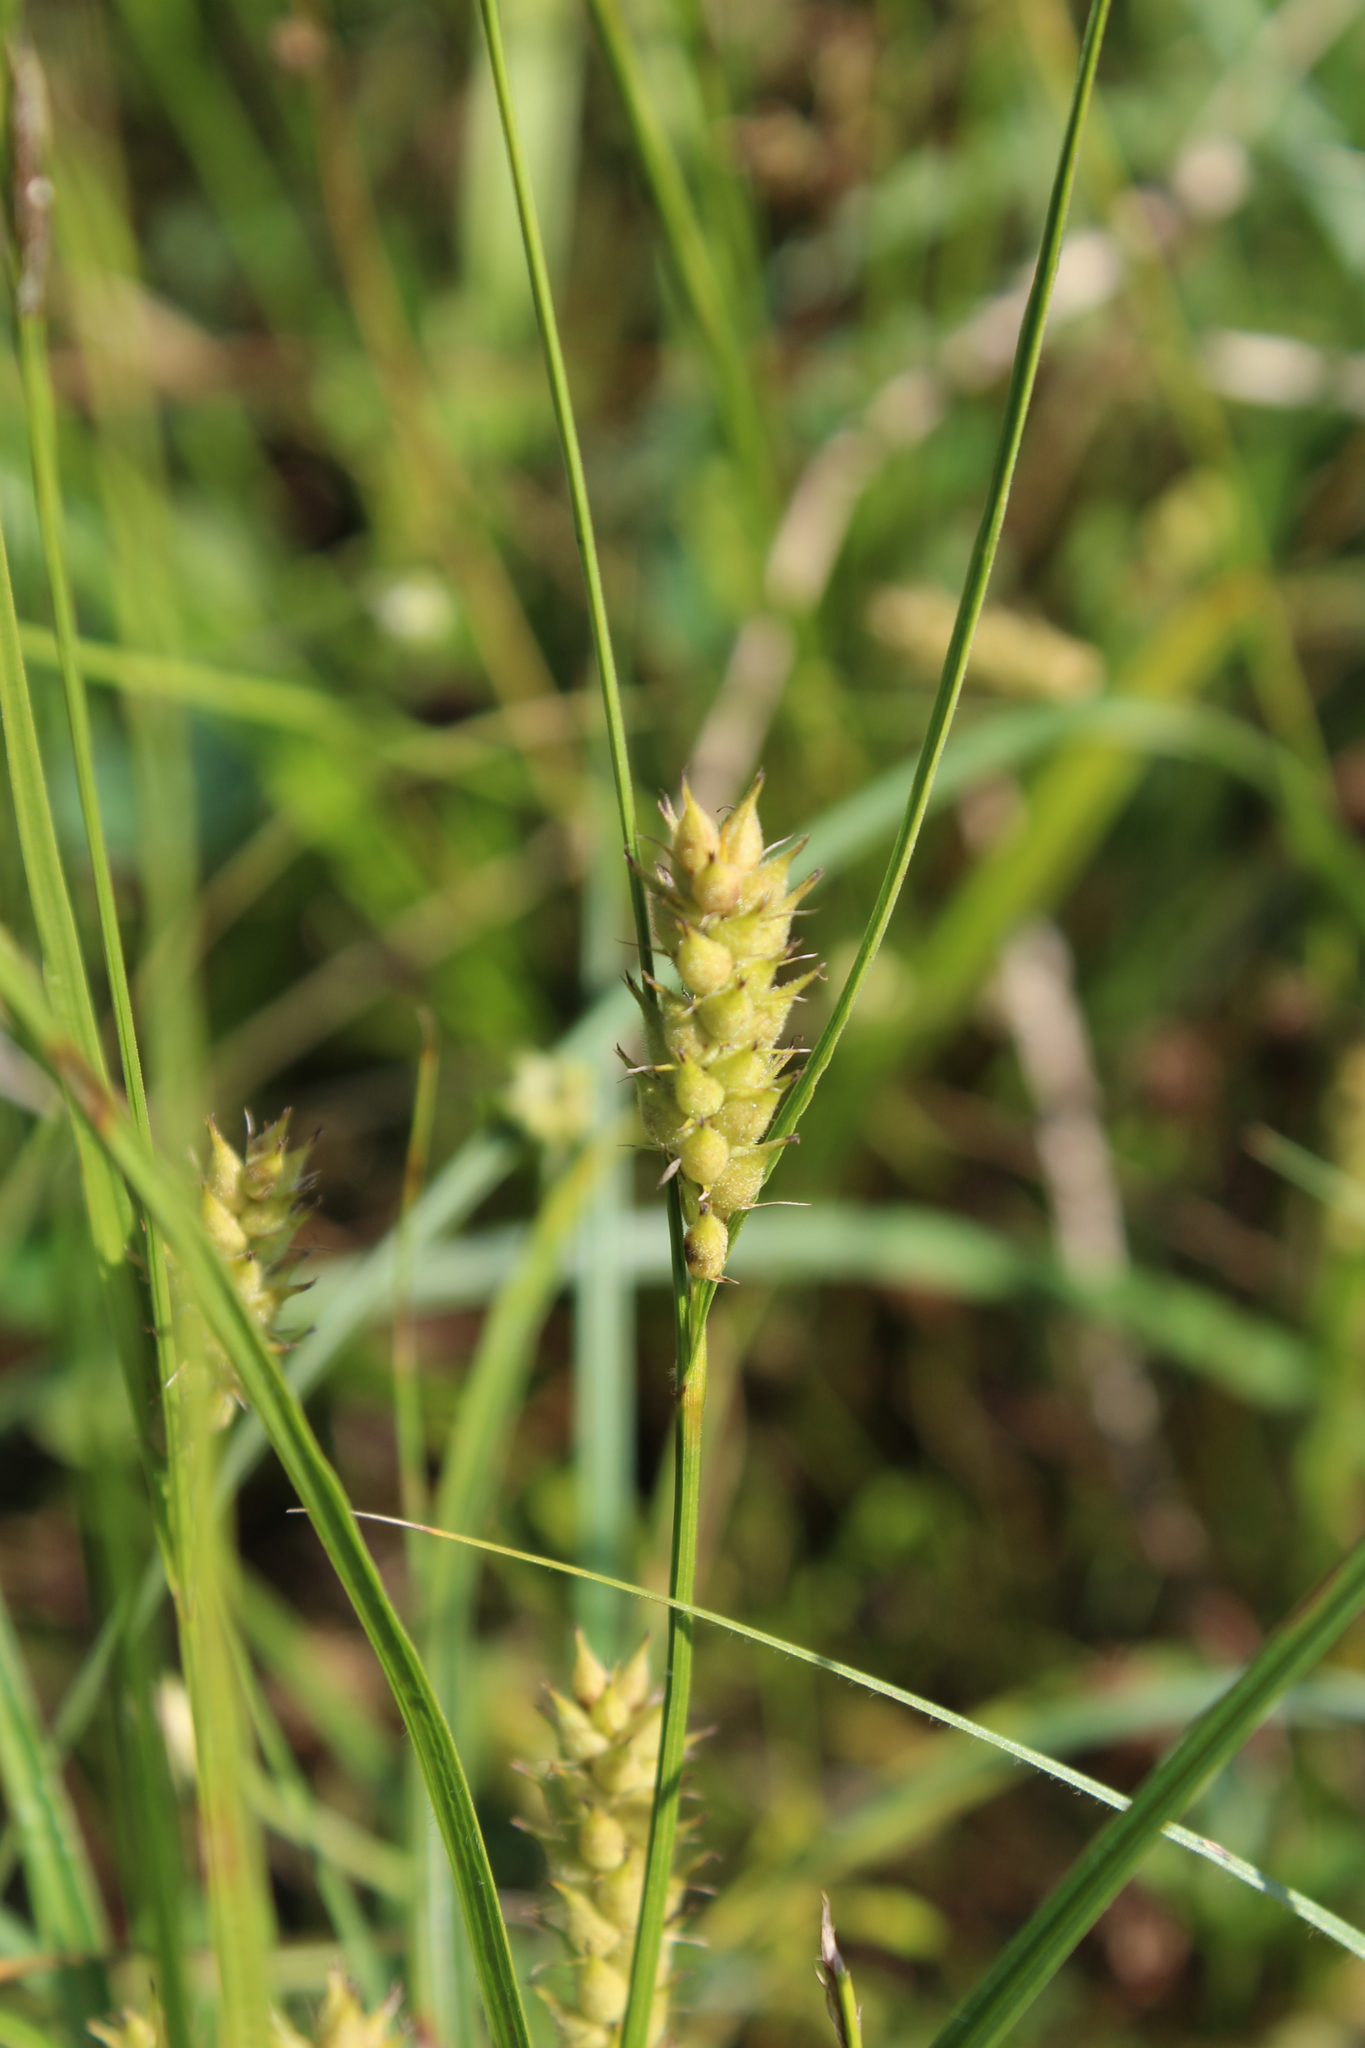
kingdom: Plantae
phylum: Tracheophyta
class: Liliopsida
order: Poales
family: Cyperaceae
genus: Carex
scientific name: Carex hirta
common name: Hairy sedge
